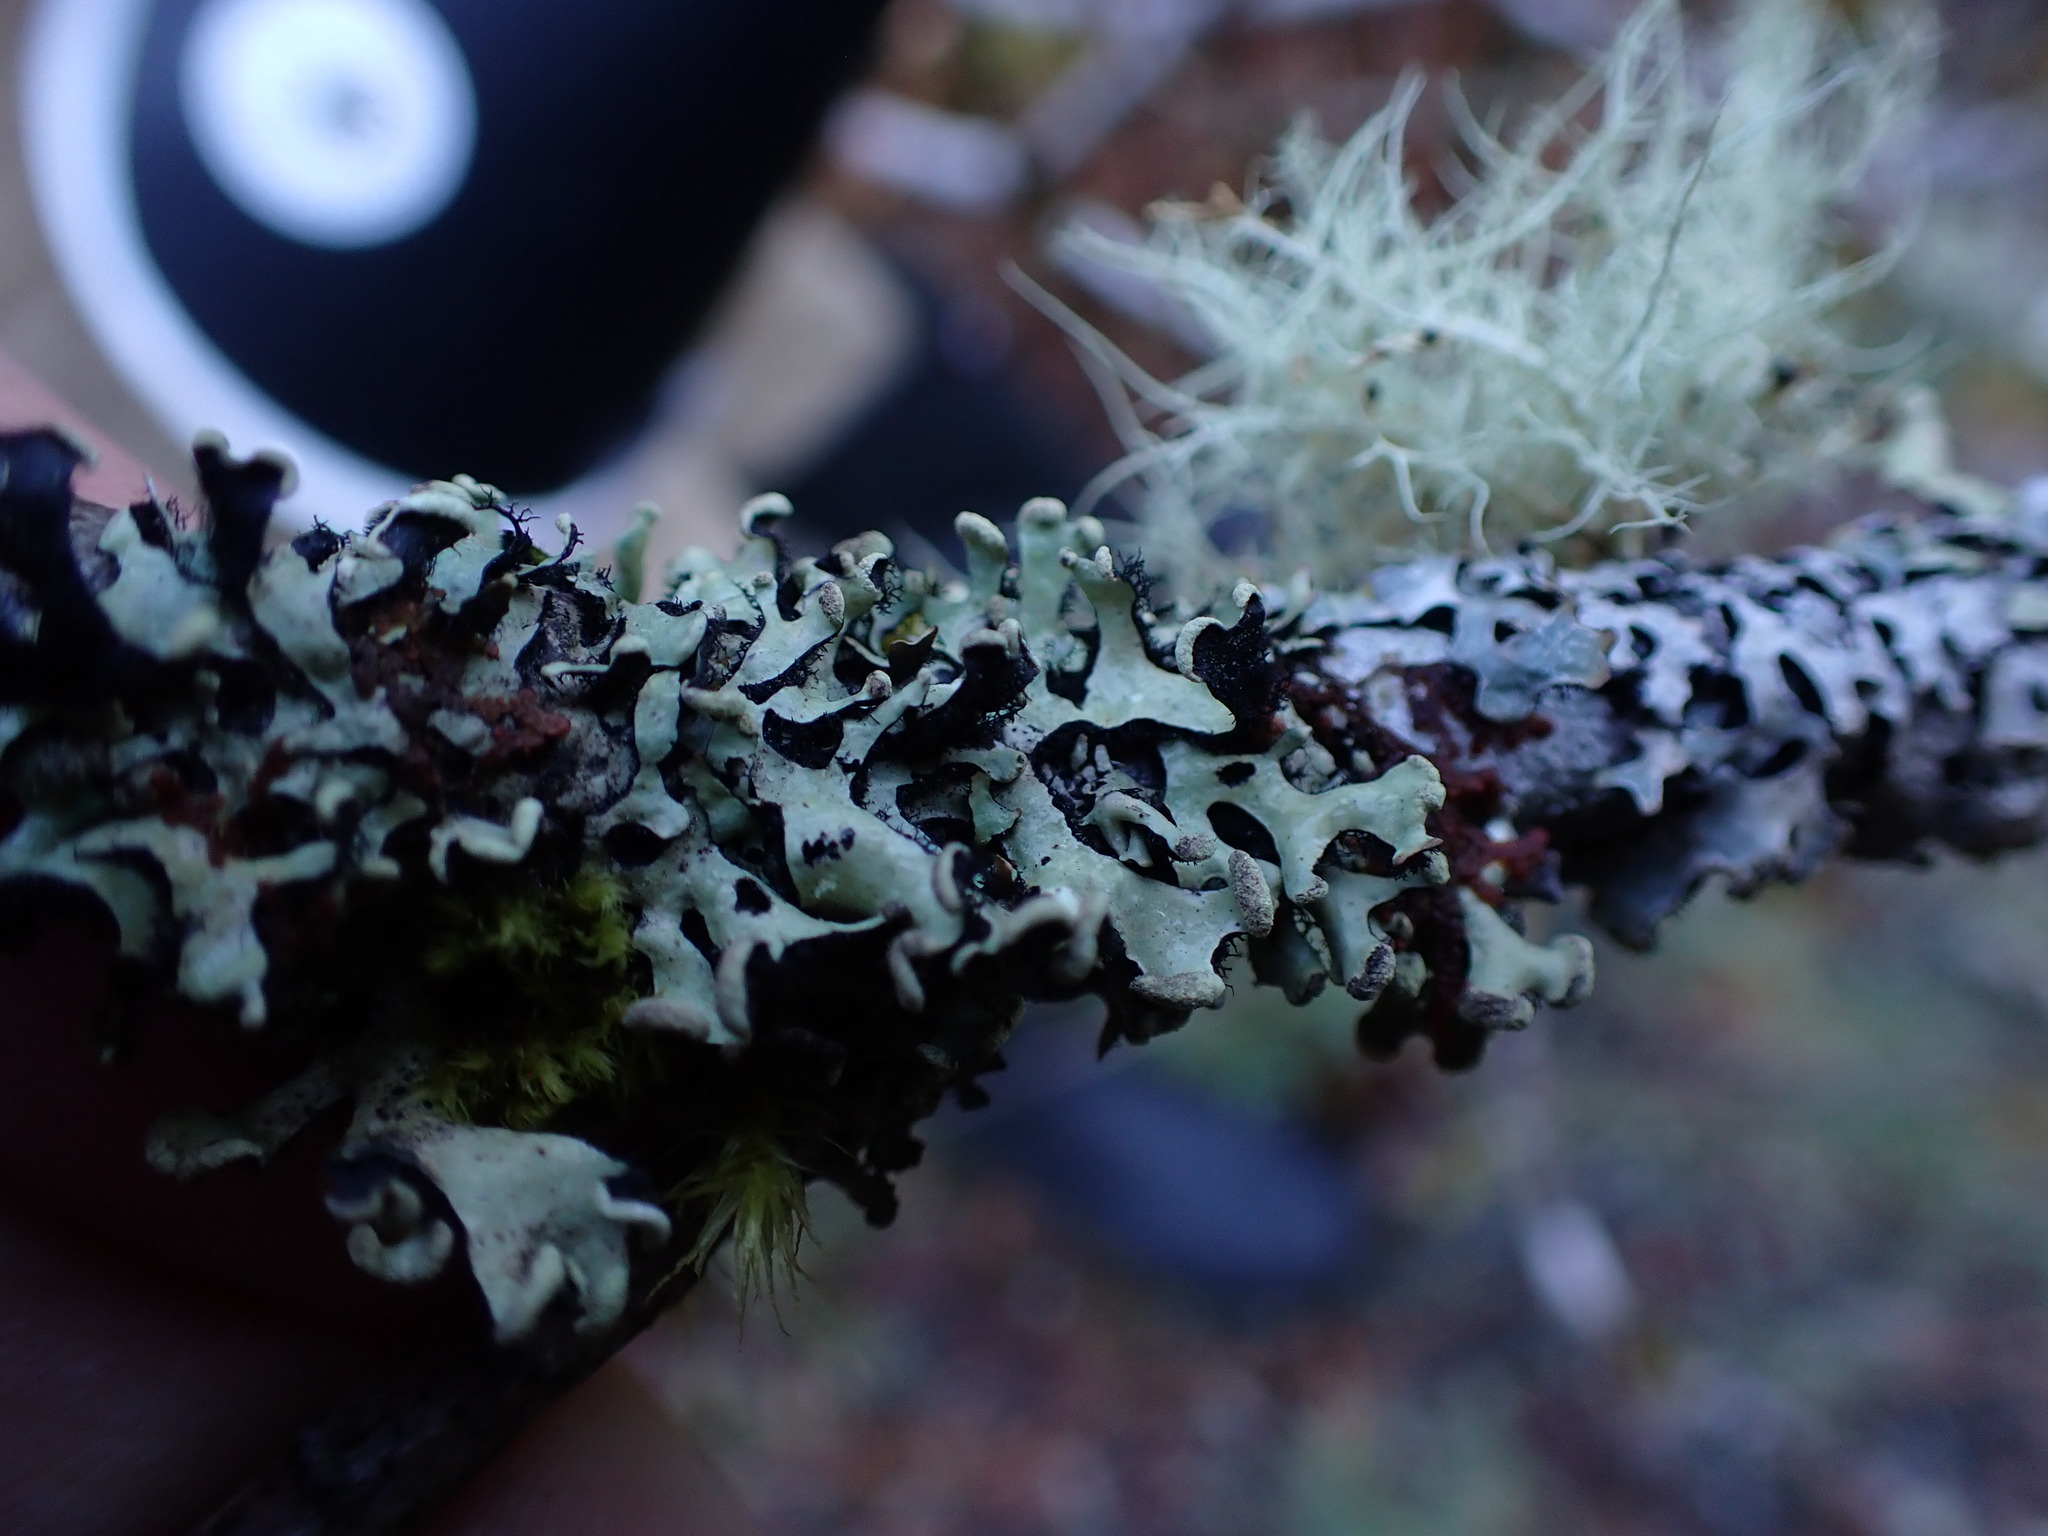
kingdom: Fungi
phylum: Ascomycota
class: Lecanoromycetes
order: Lecanorales
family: Parmeliaceae
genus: Hypotrachyna
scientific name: Hypotrachyna sinuosa
